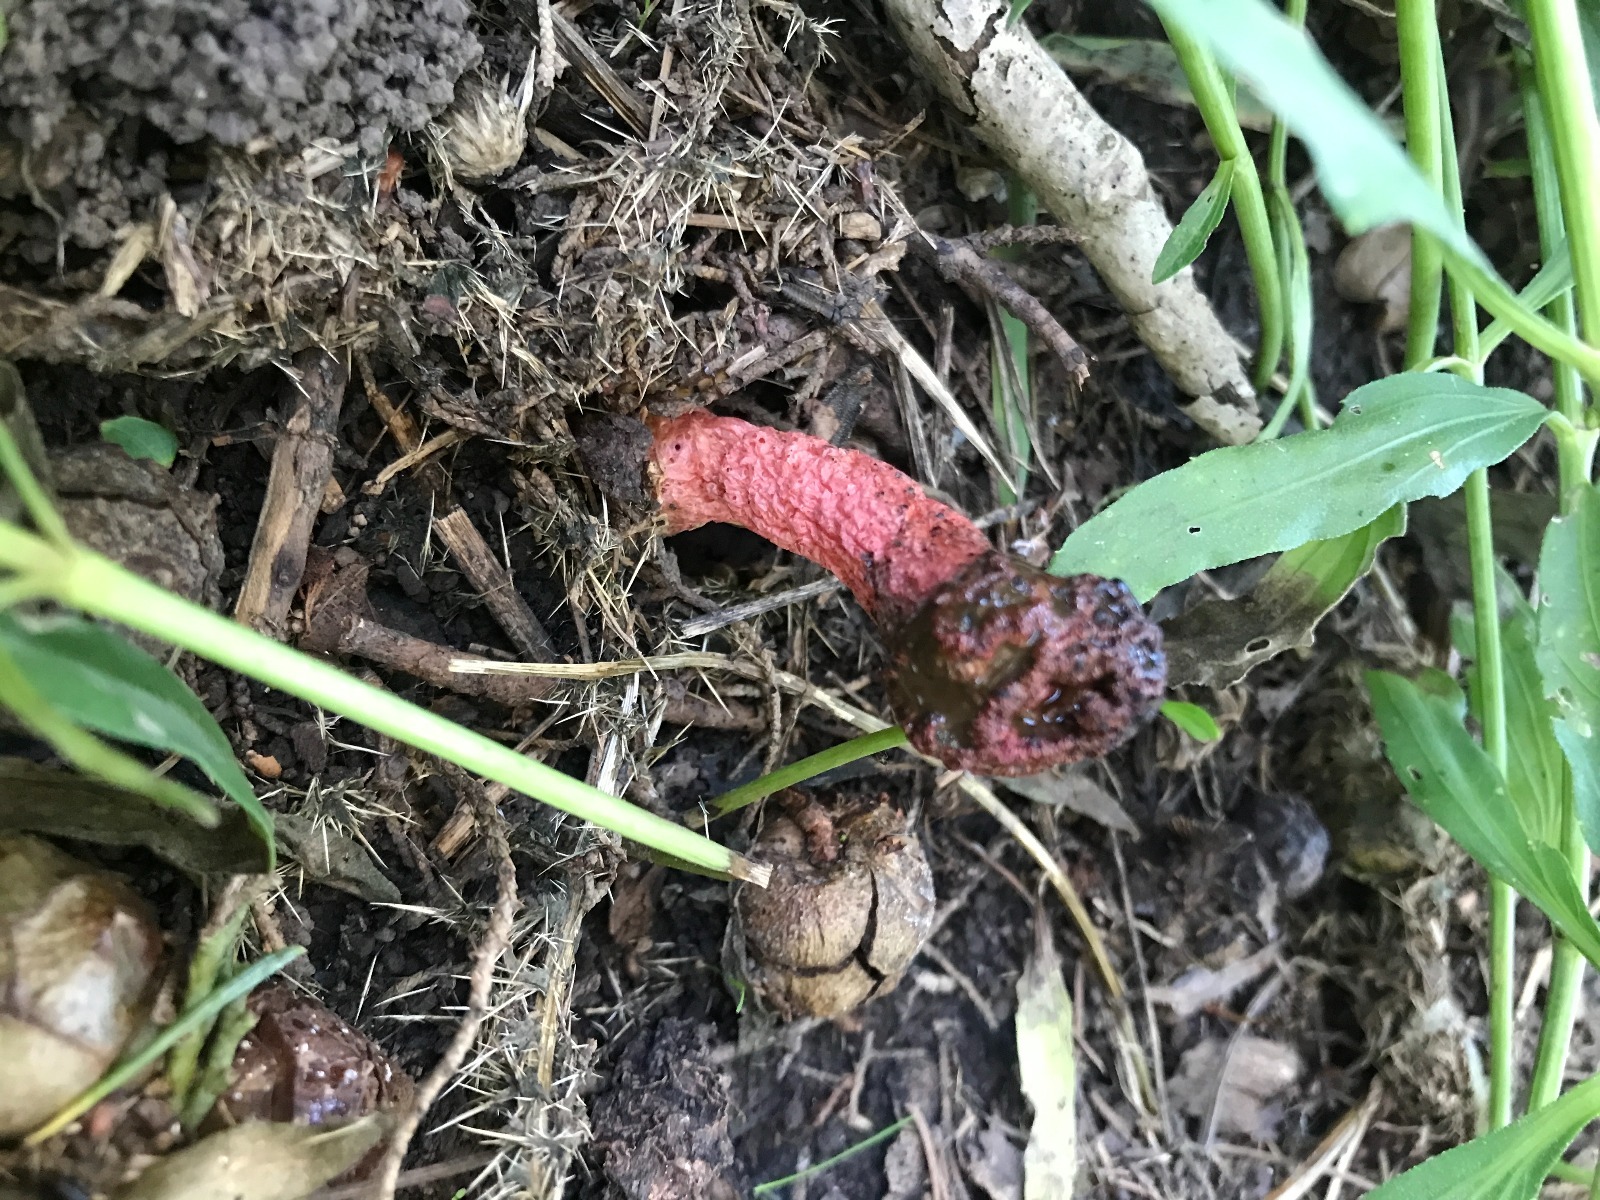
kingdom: Fungi
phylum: Basidiomycota
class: Agaricomycetes
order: Phallales
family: Phallaceae
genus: Lysurus
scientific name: Lysurus periphragmoides
